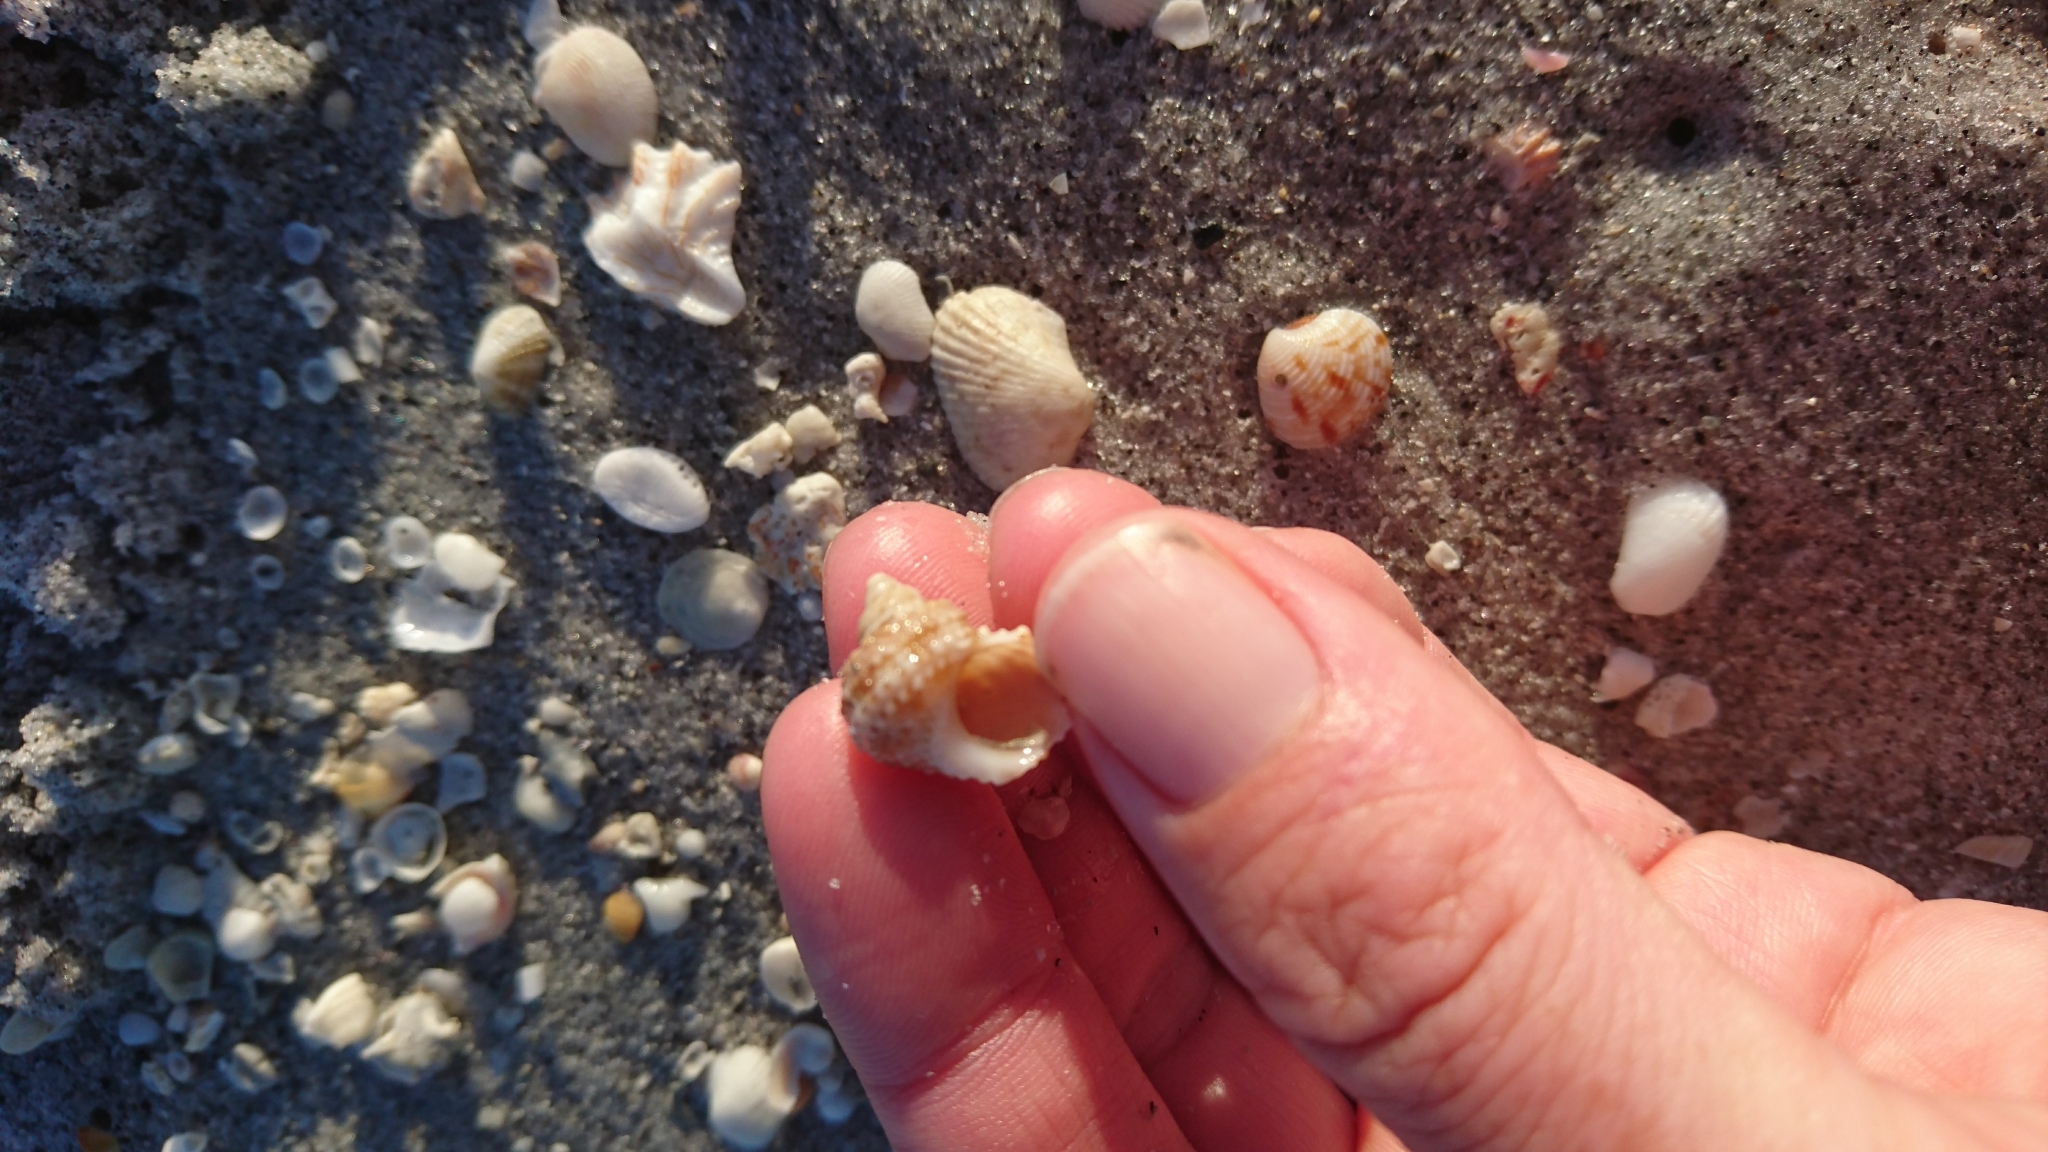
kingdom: Animalia
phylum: Mollusca
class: Gastropoda
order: Trochida
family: Turbinidae
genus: Turbo
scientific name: Turbo castanea
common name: Chestnut turban
